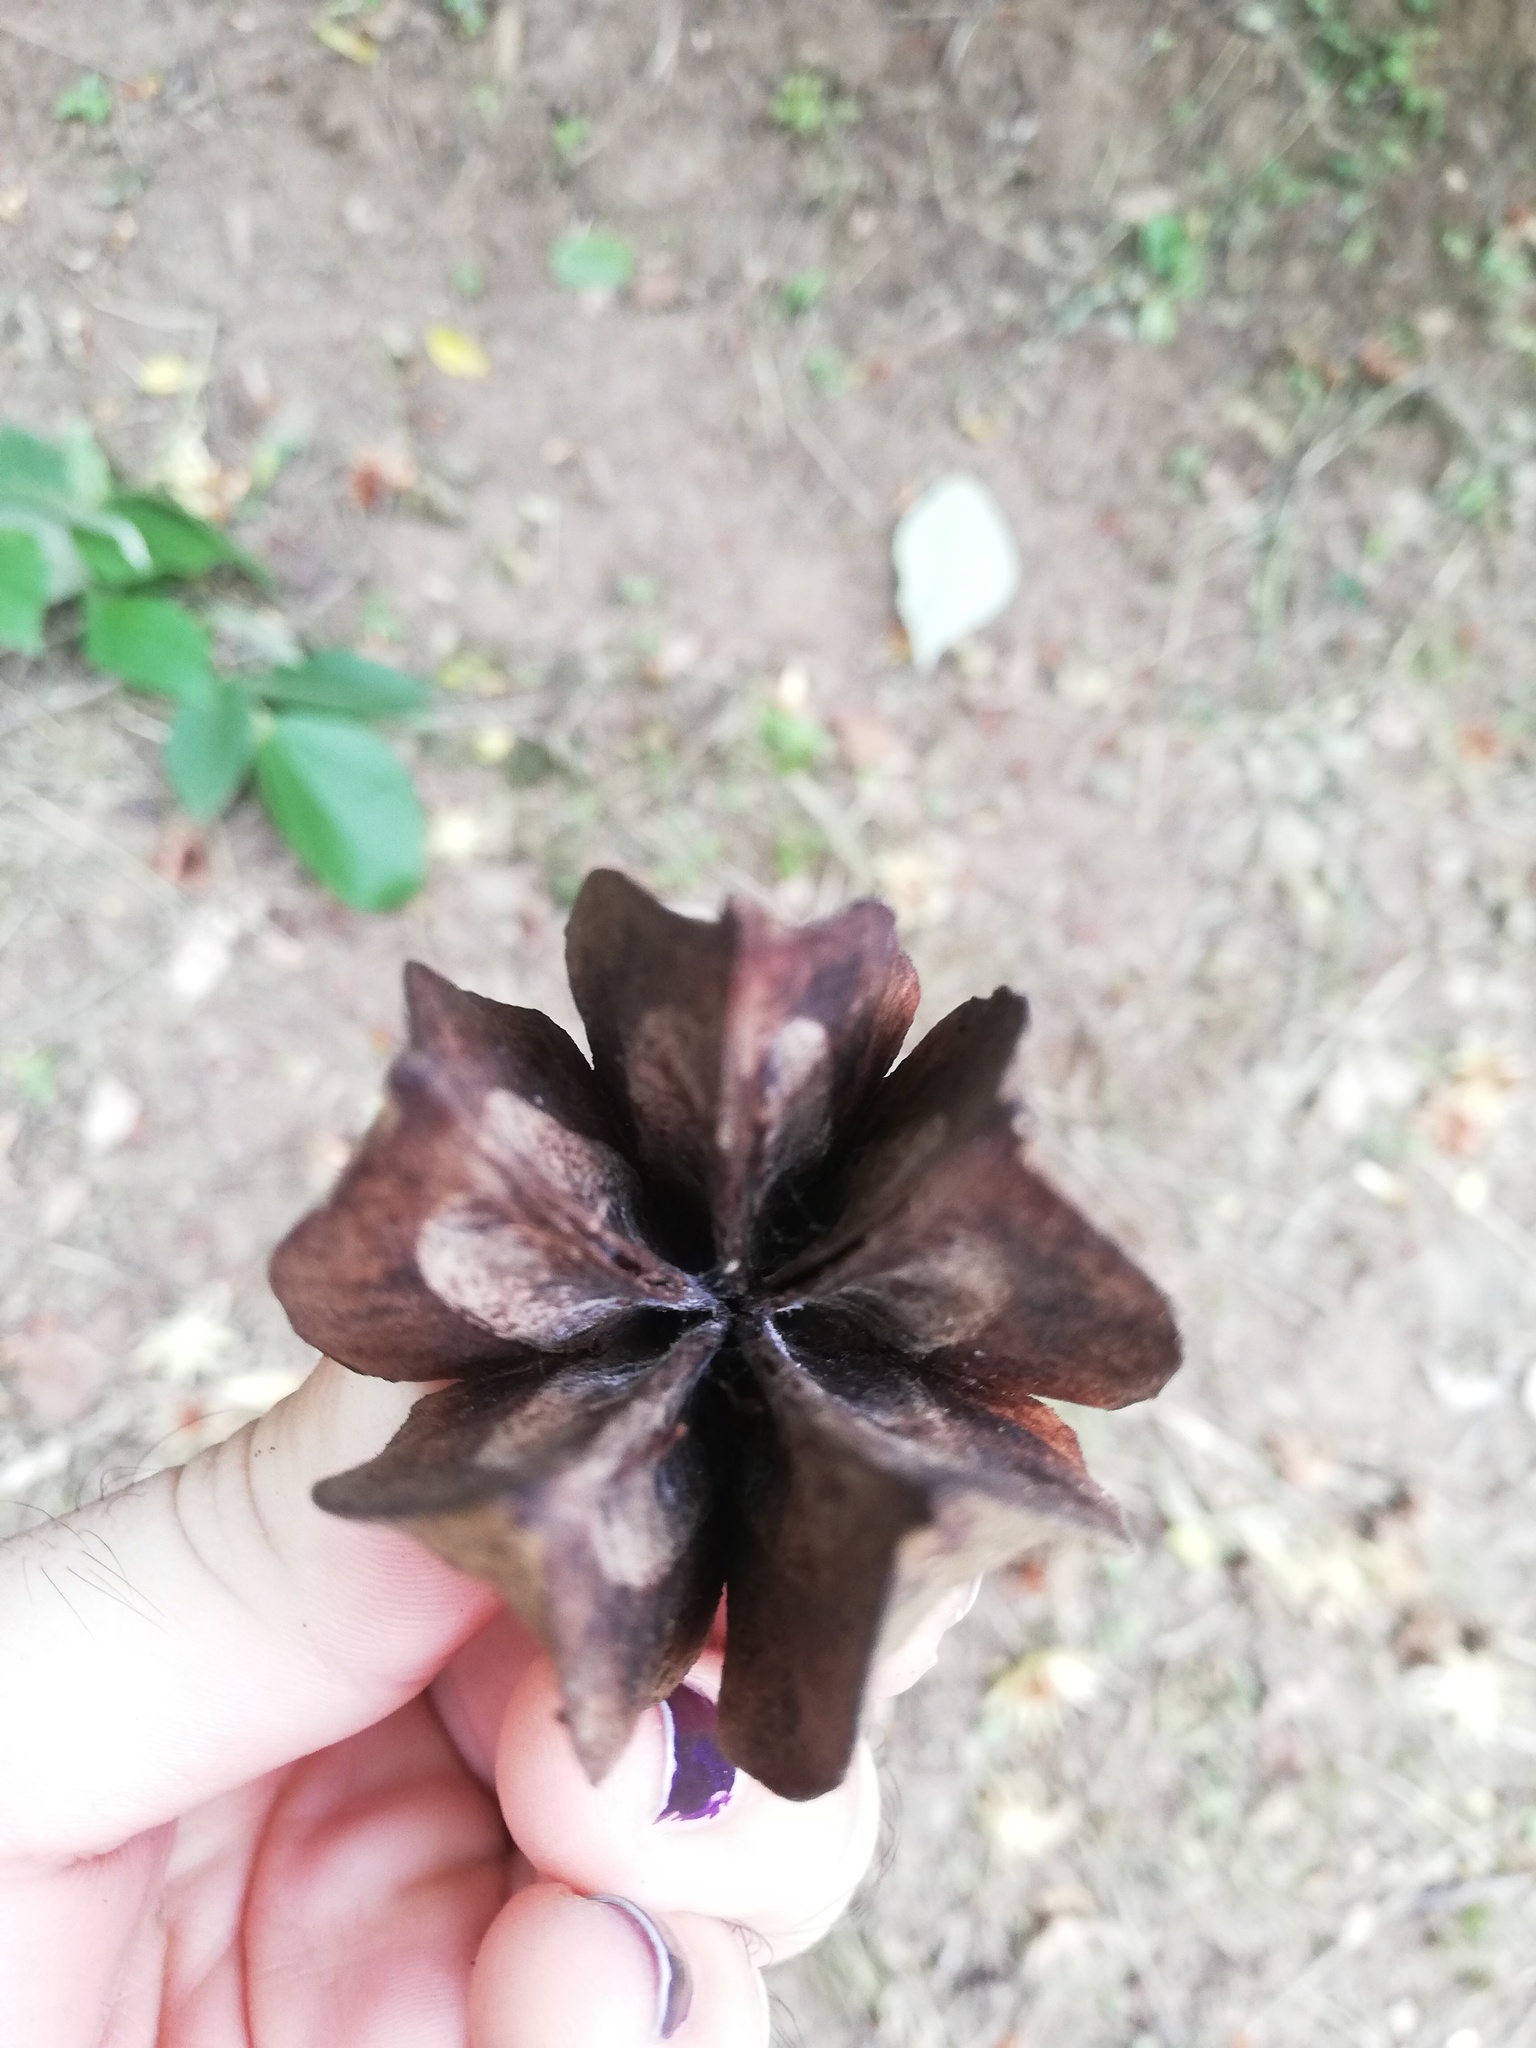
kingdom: Plantae
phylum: Tracheophyta
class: Magnoliopsida
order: Malvales
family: Malvaceae
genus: Luehea
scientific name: Luehea candida
